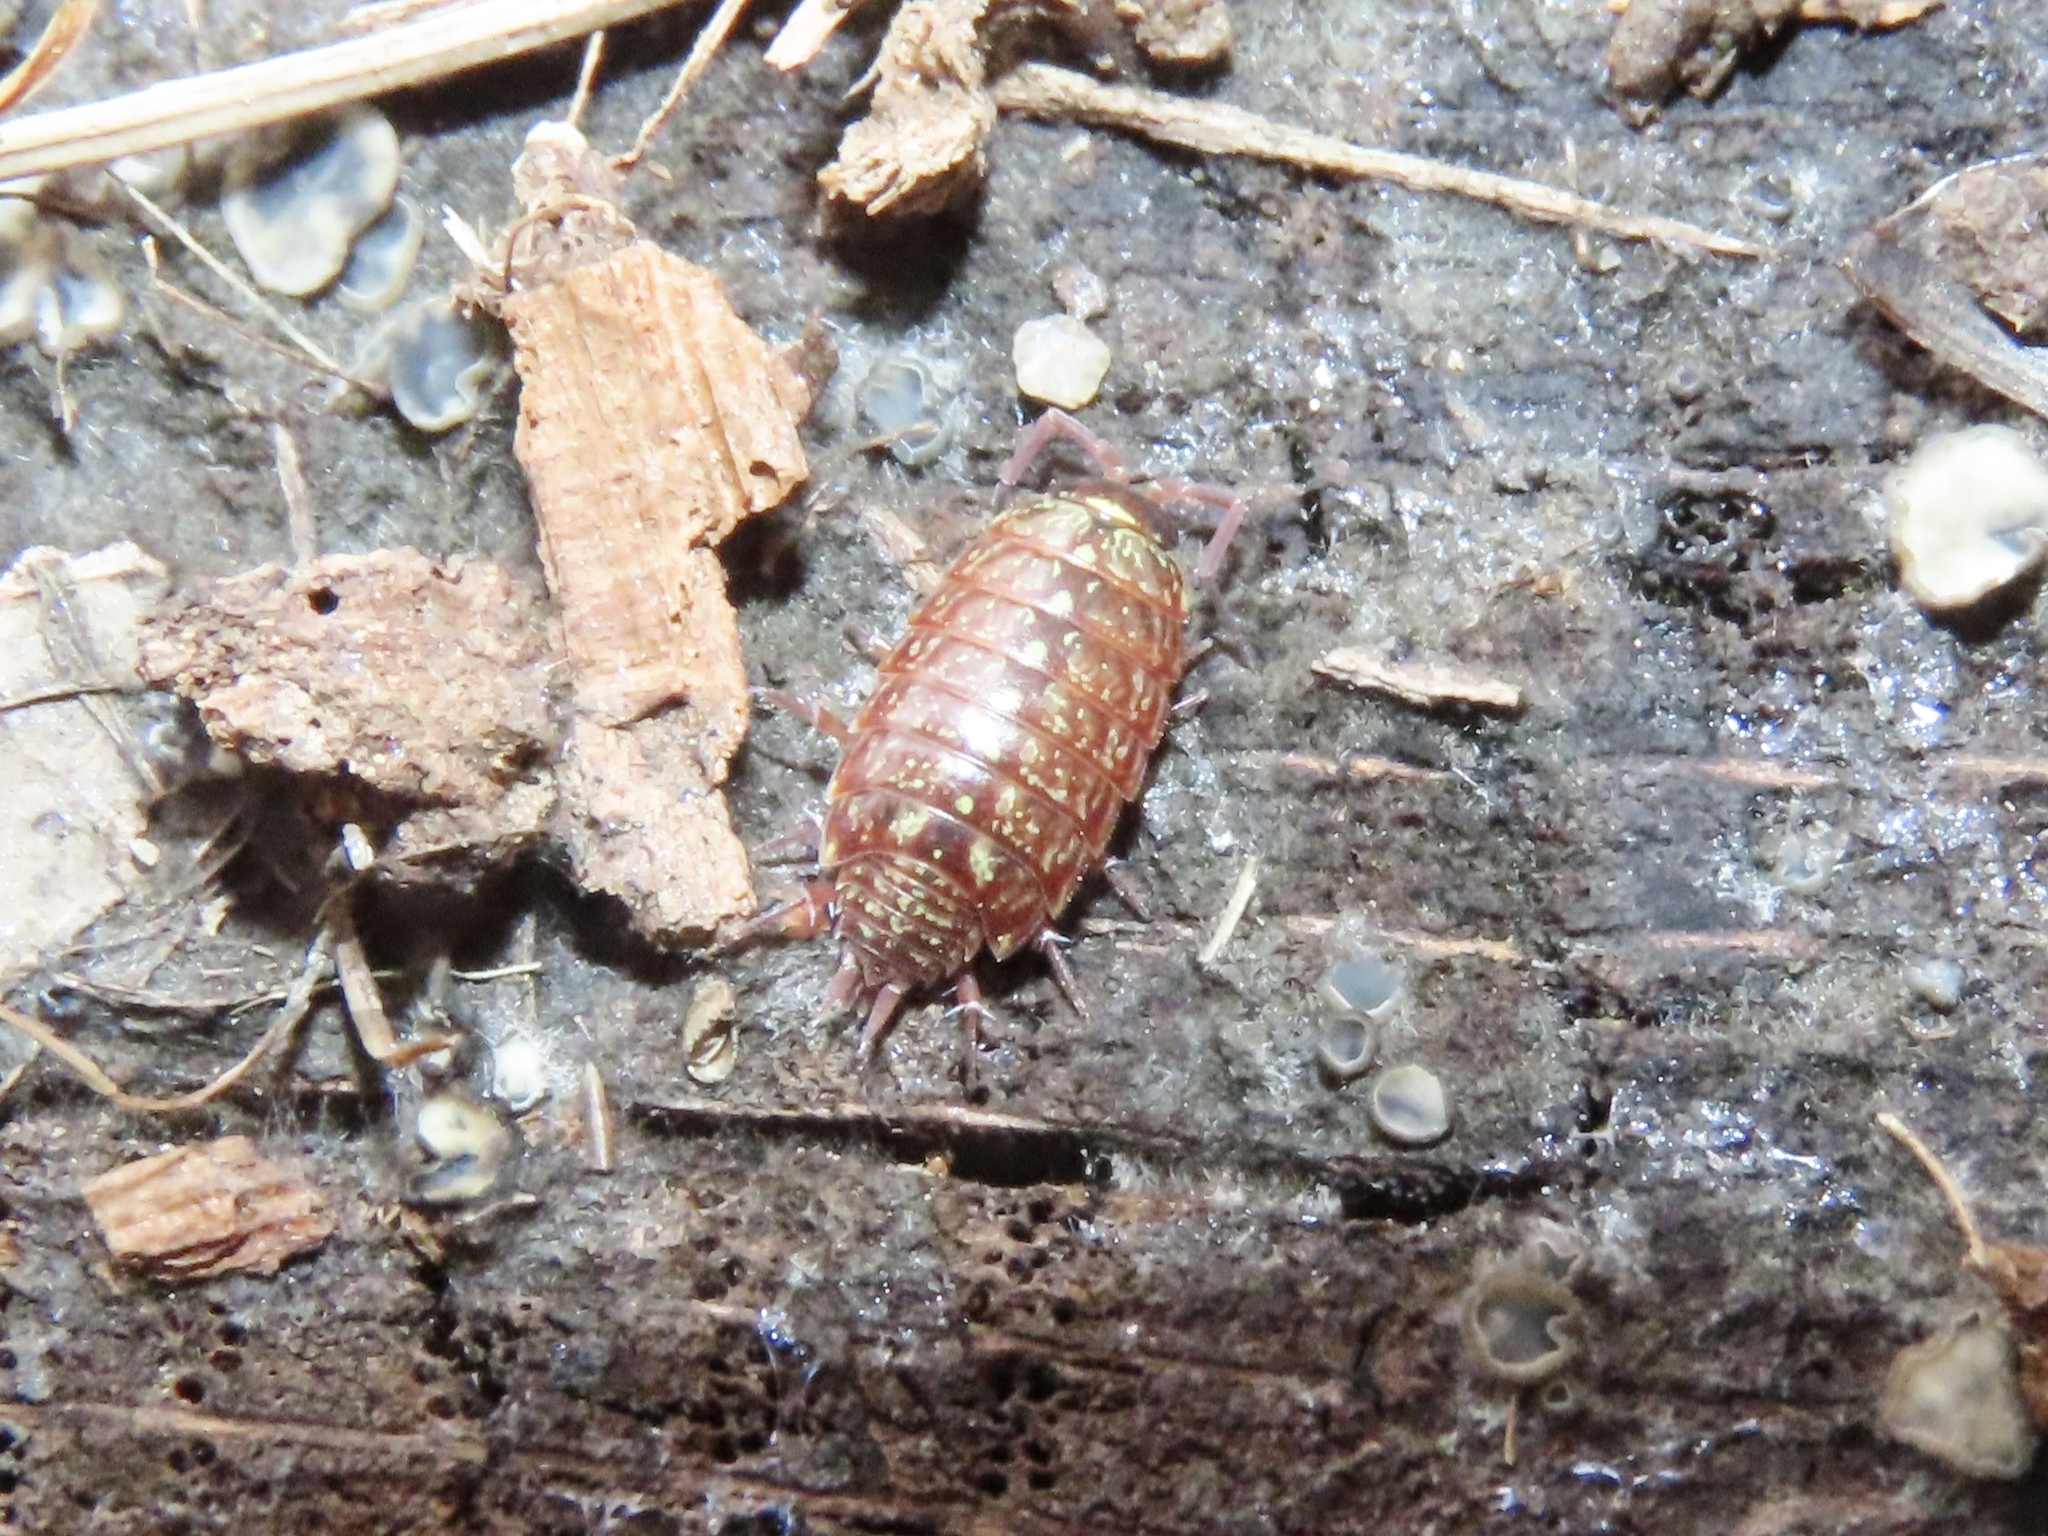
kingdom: Animalia
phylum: Arthropoda
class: Malacostraca
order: Isopoda
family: Philosciidae
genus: Philoscia
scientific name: Philoscia muscorum
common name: Common striped woodlouse
